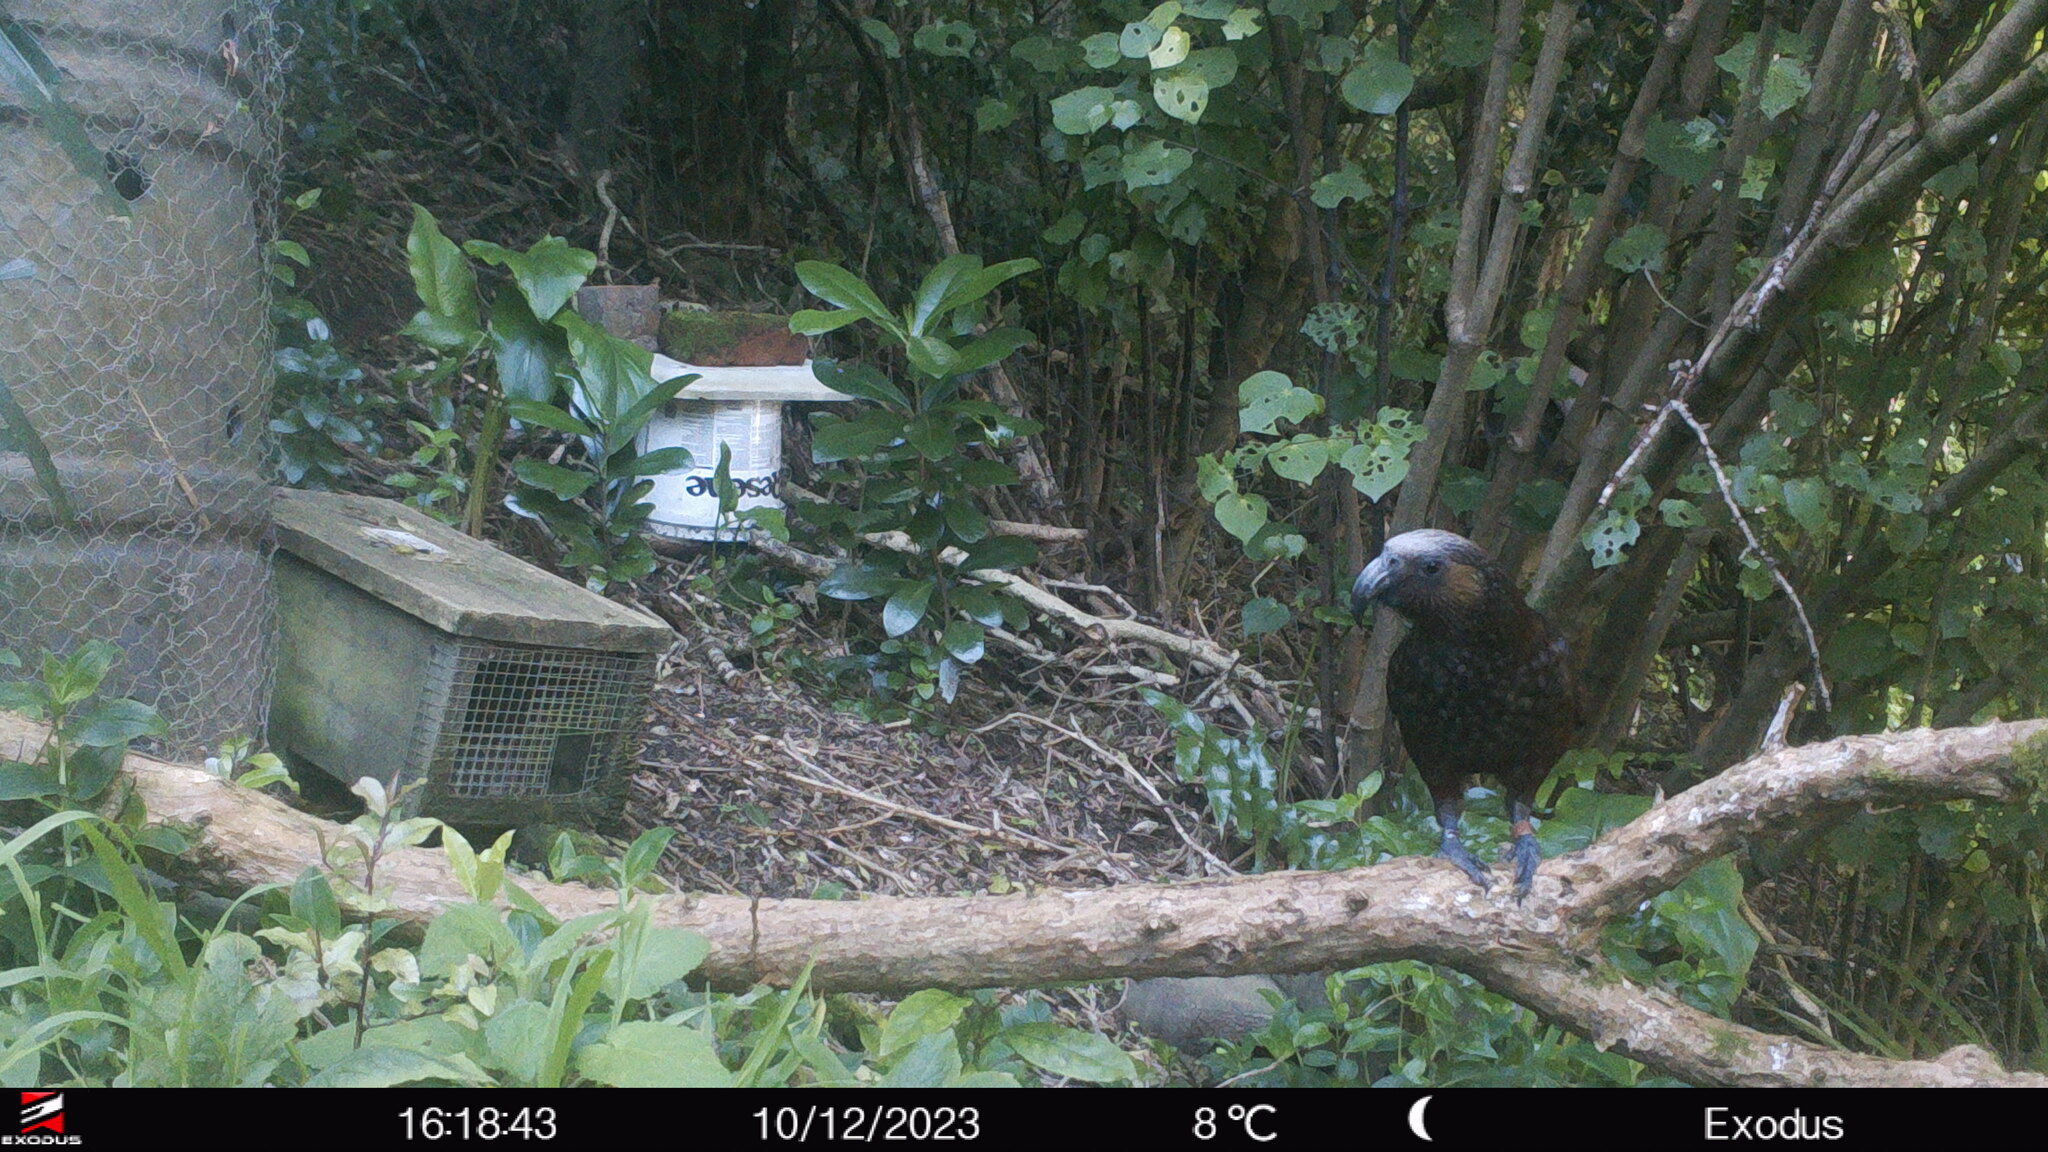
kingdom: Animalia
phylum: Chordata
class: Aves
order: Psittaciformes
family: Psittacidae
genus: Nestor
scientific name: Nestor meridionalis
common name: New zealand kaka
